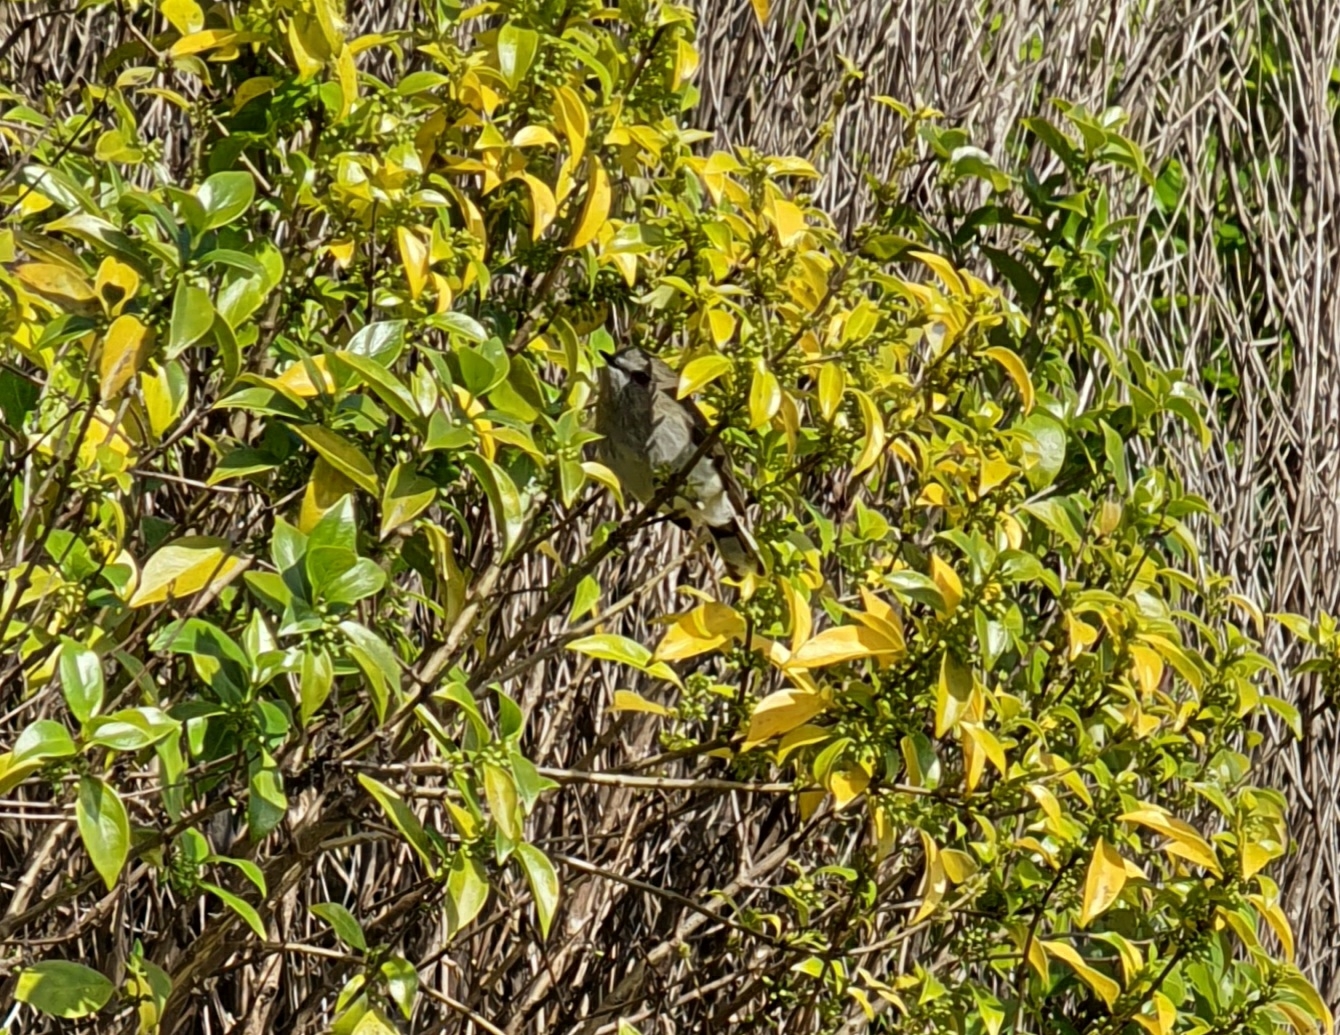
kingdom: Animalia
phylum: Chordata
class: Aves
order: Passeriformes
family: Acanthizidae
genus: Gerygone
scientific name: Gerygone igata
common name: Grey gerygone
